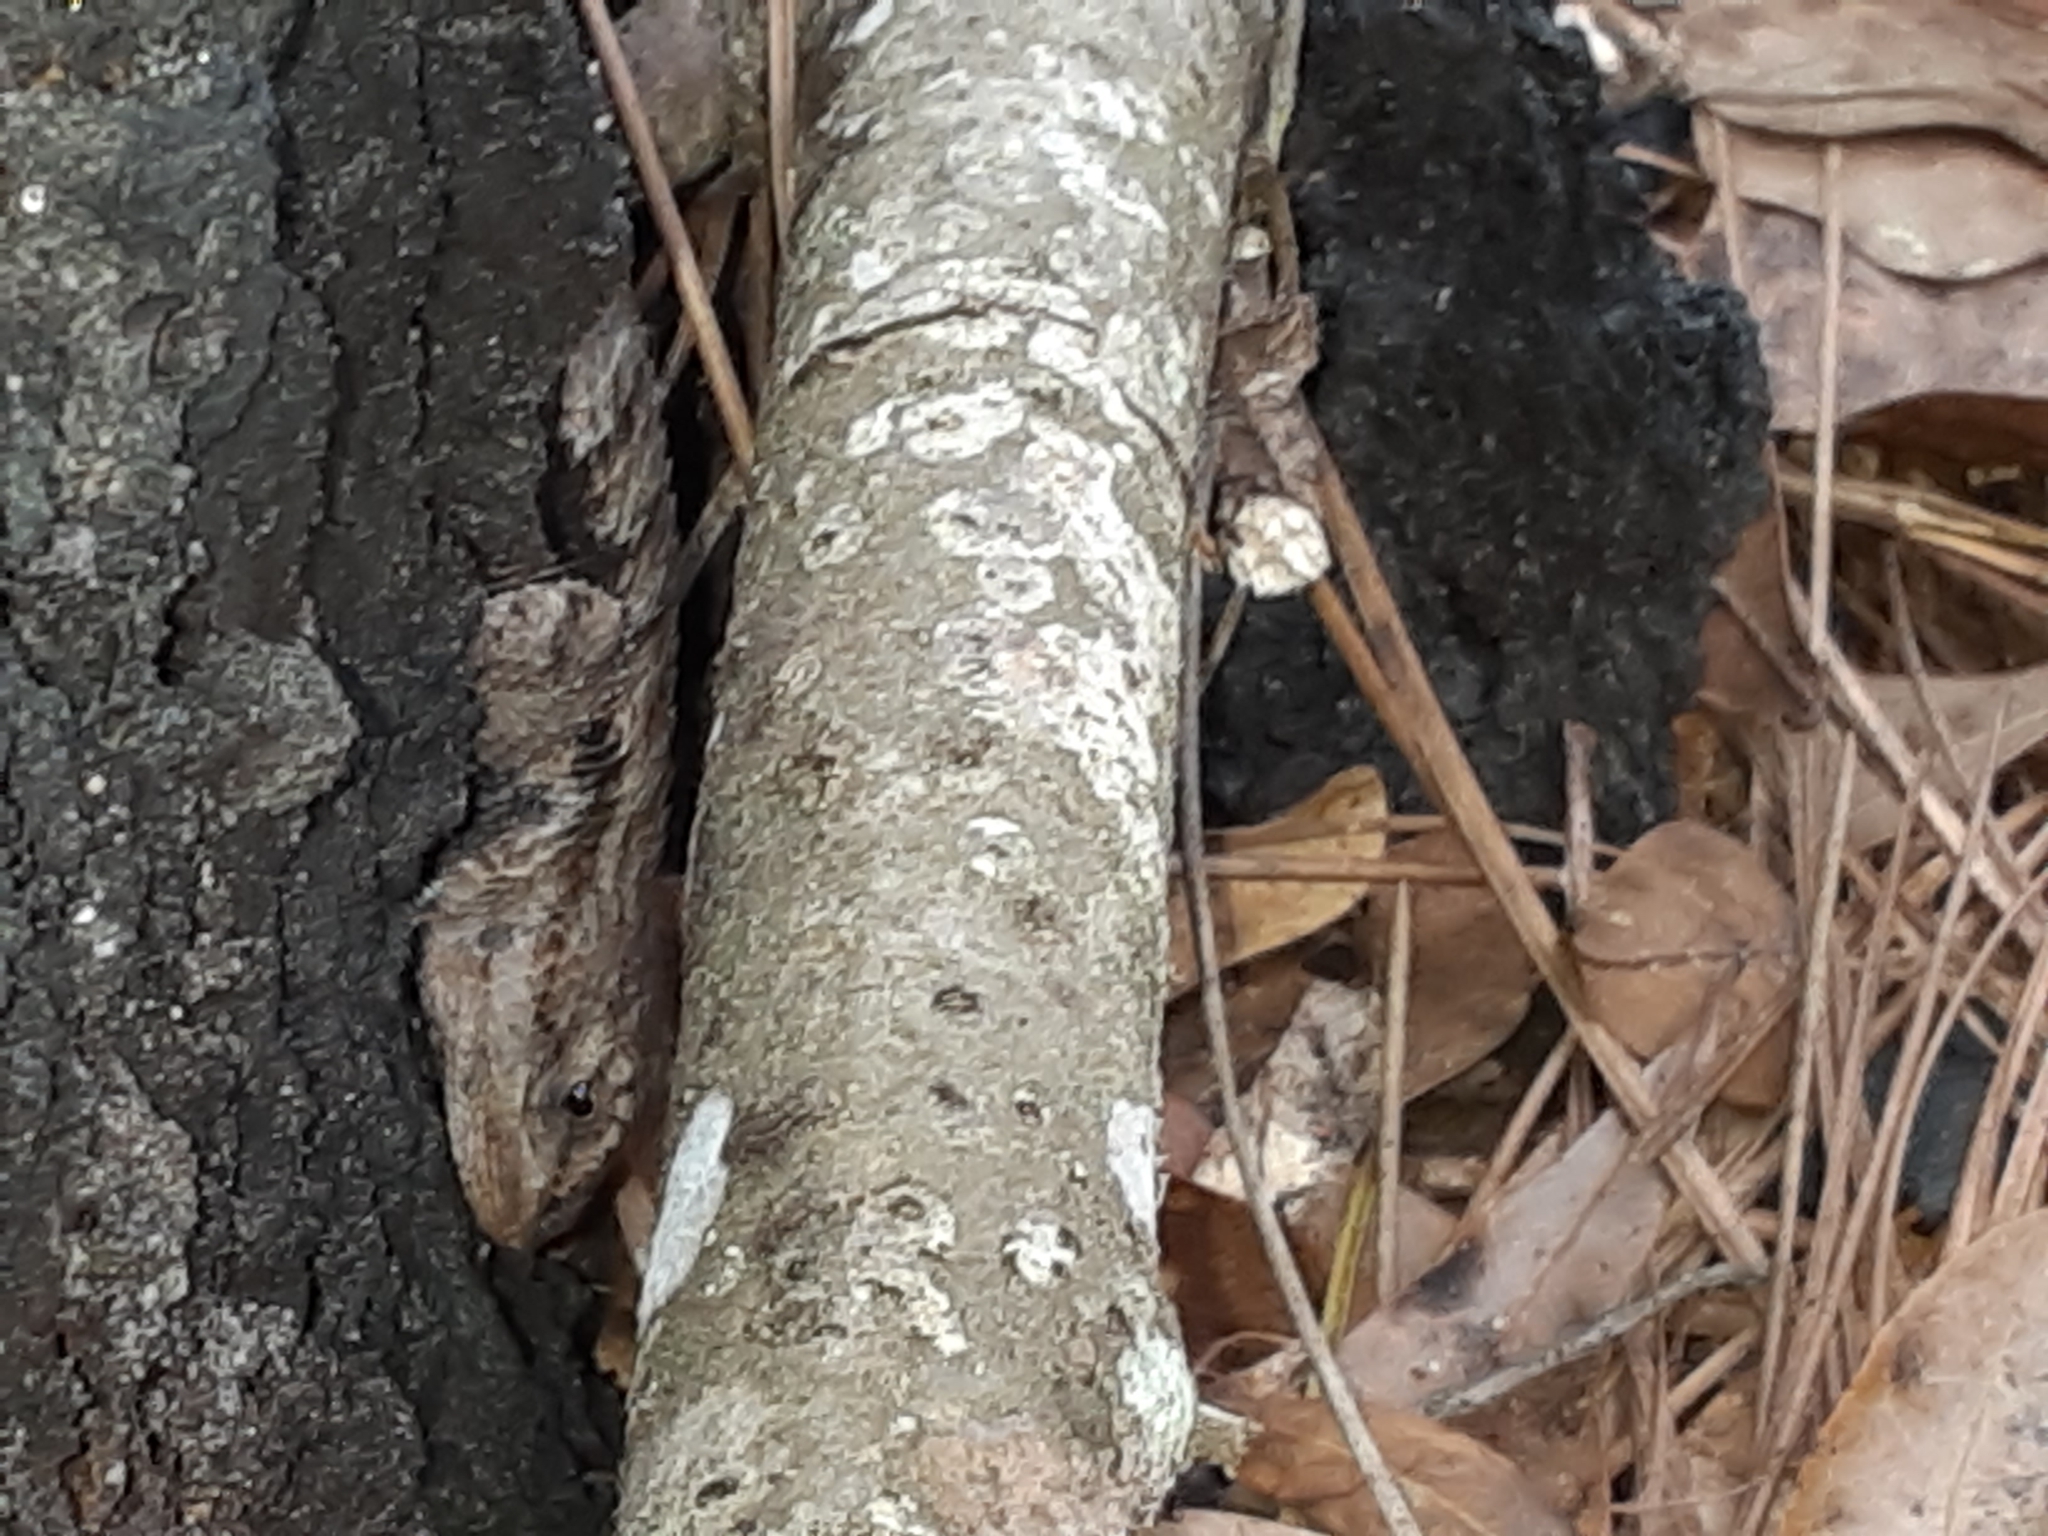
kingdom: Animalia
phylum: Chordata
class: Squamata
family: Phrynosomatidae
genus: Sceloporus
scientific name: Sceloporus undulatus
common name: Eastern fence lizard
